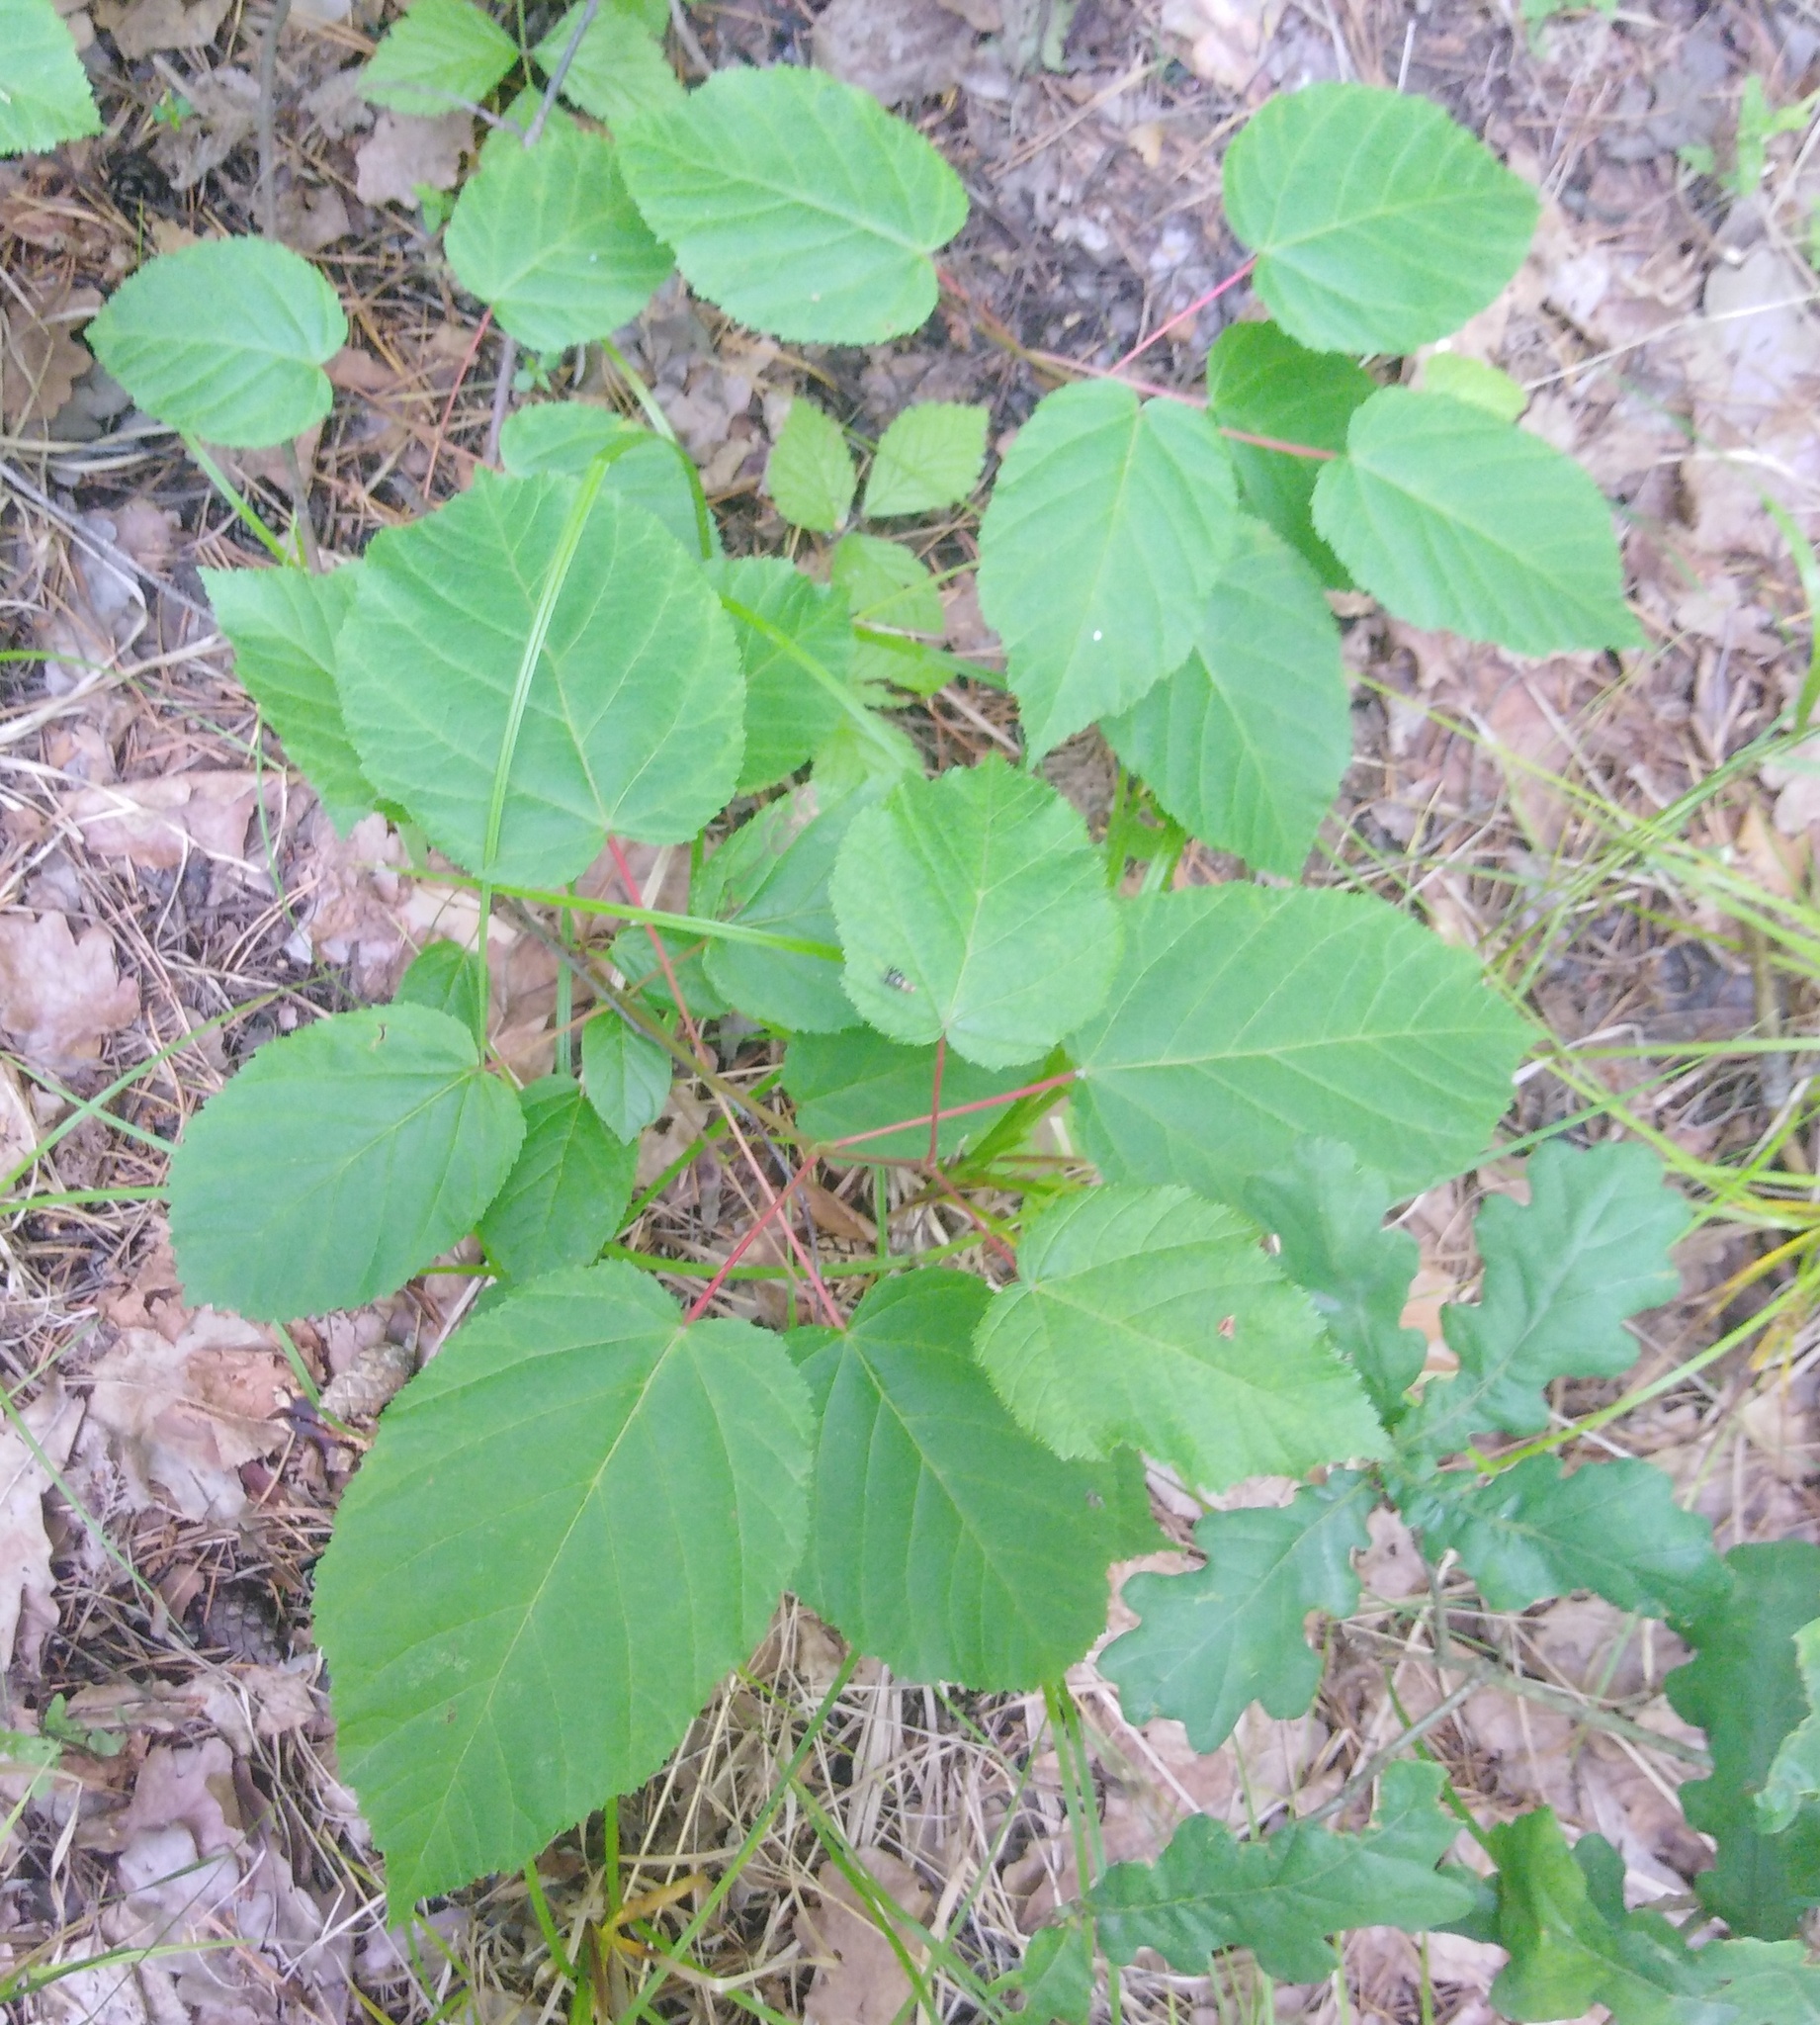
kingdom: Plantae
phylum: Tracheophyta
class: Magnoliopsida
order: Sapindales
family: Sapindaceae
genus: Acer
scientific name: Acer tataricum
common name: Tartar maple
